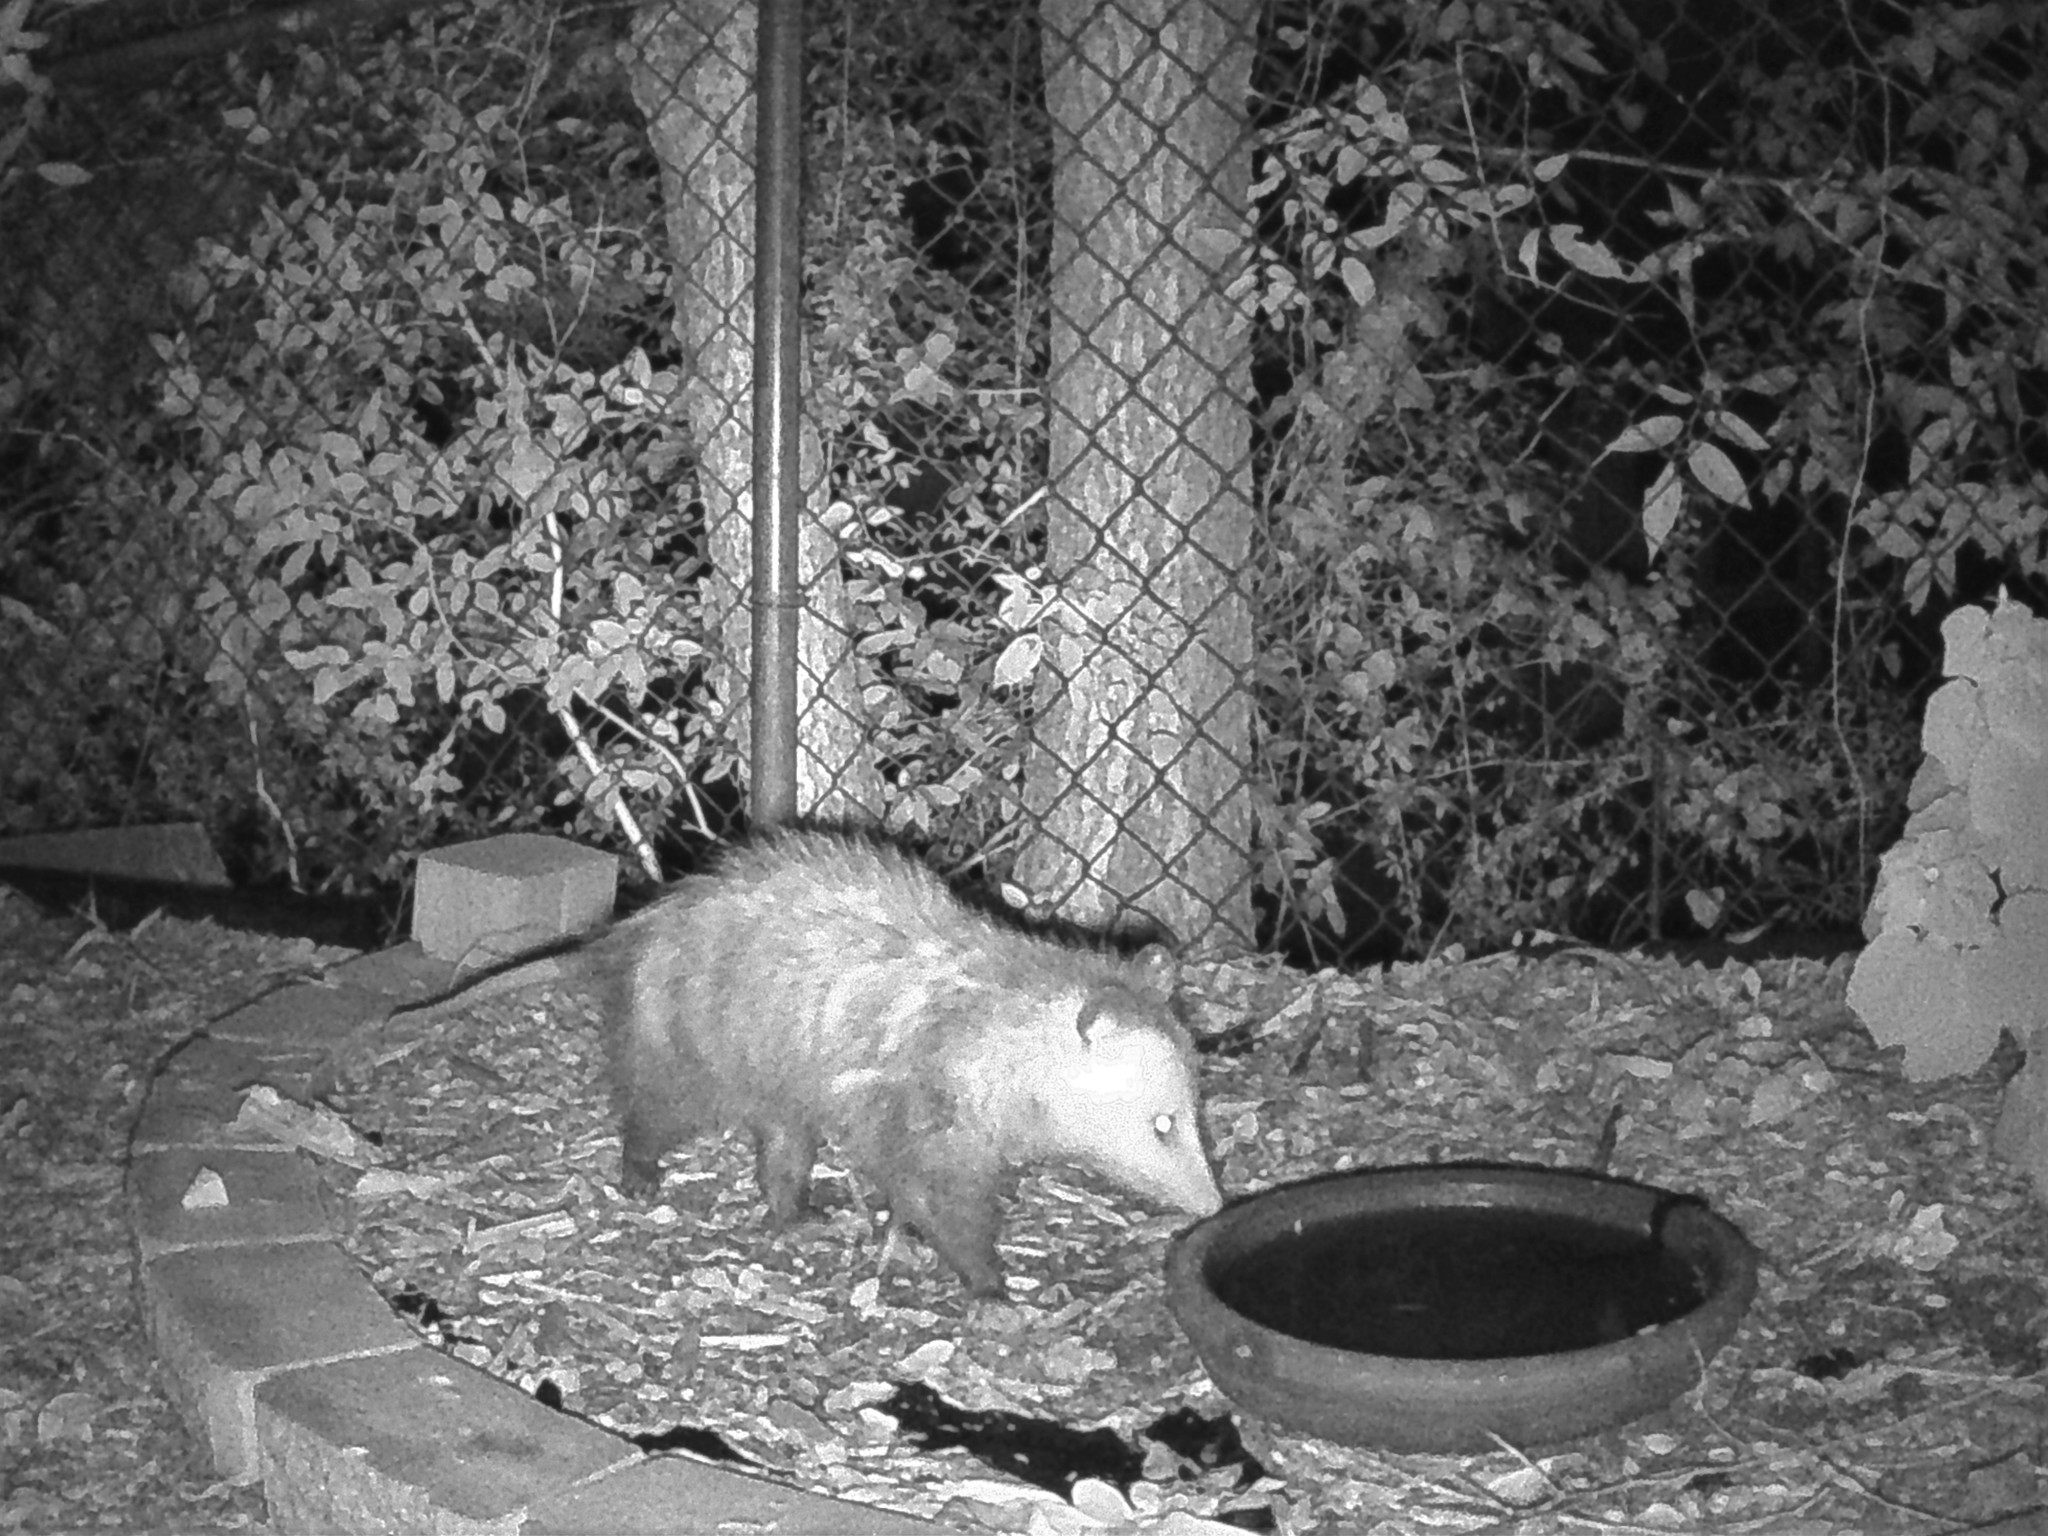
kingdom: Animalia
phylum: Chordata
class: Mammalia
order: Didelphimorphia
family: Didelphidae
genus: Didelphis
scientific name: Didelphis virginiana
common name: Virginia opossum
